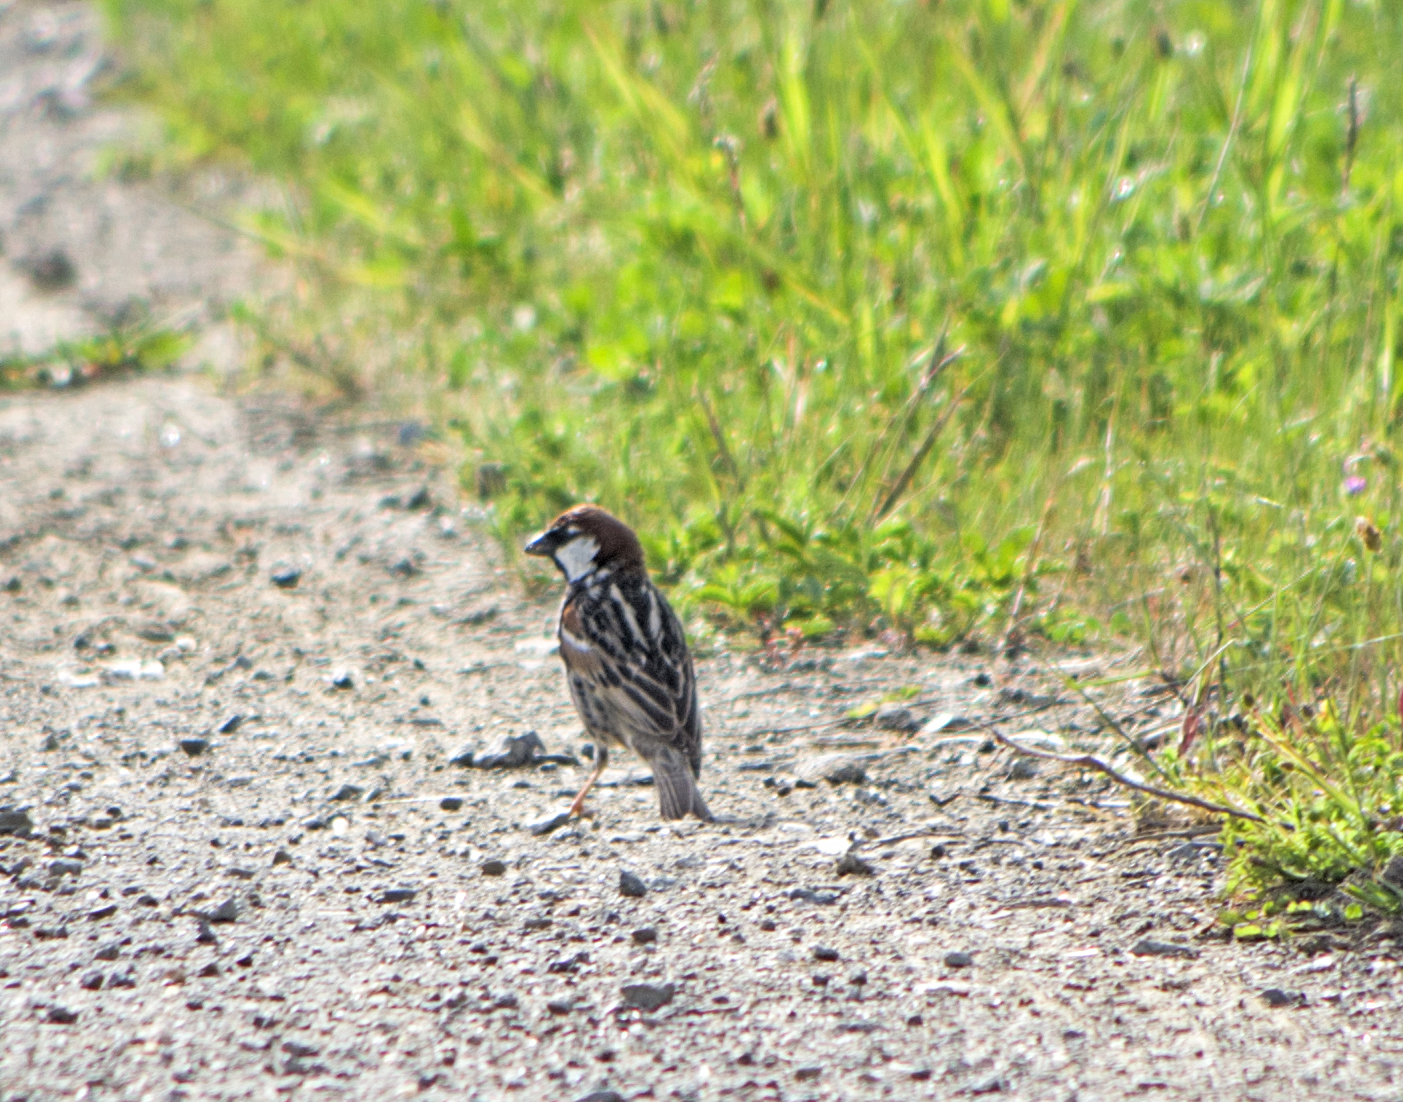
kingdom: Animalia
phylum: Chordata
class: Aves
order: Passeriformes
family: Passeridae
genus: Passer
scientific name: Passer hispaniolensis
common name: Spanish sparrow
